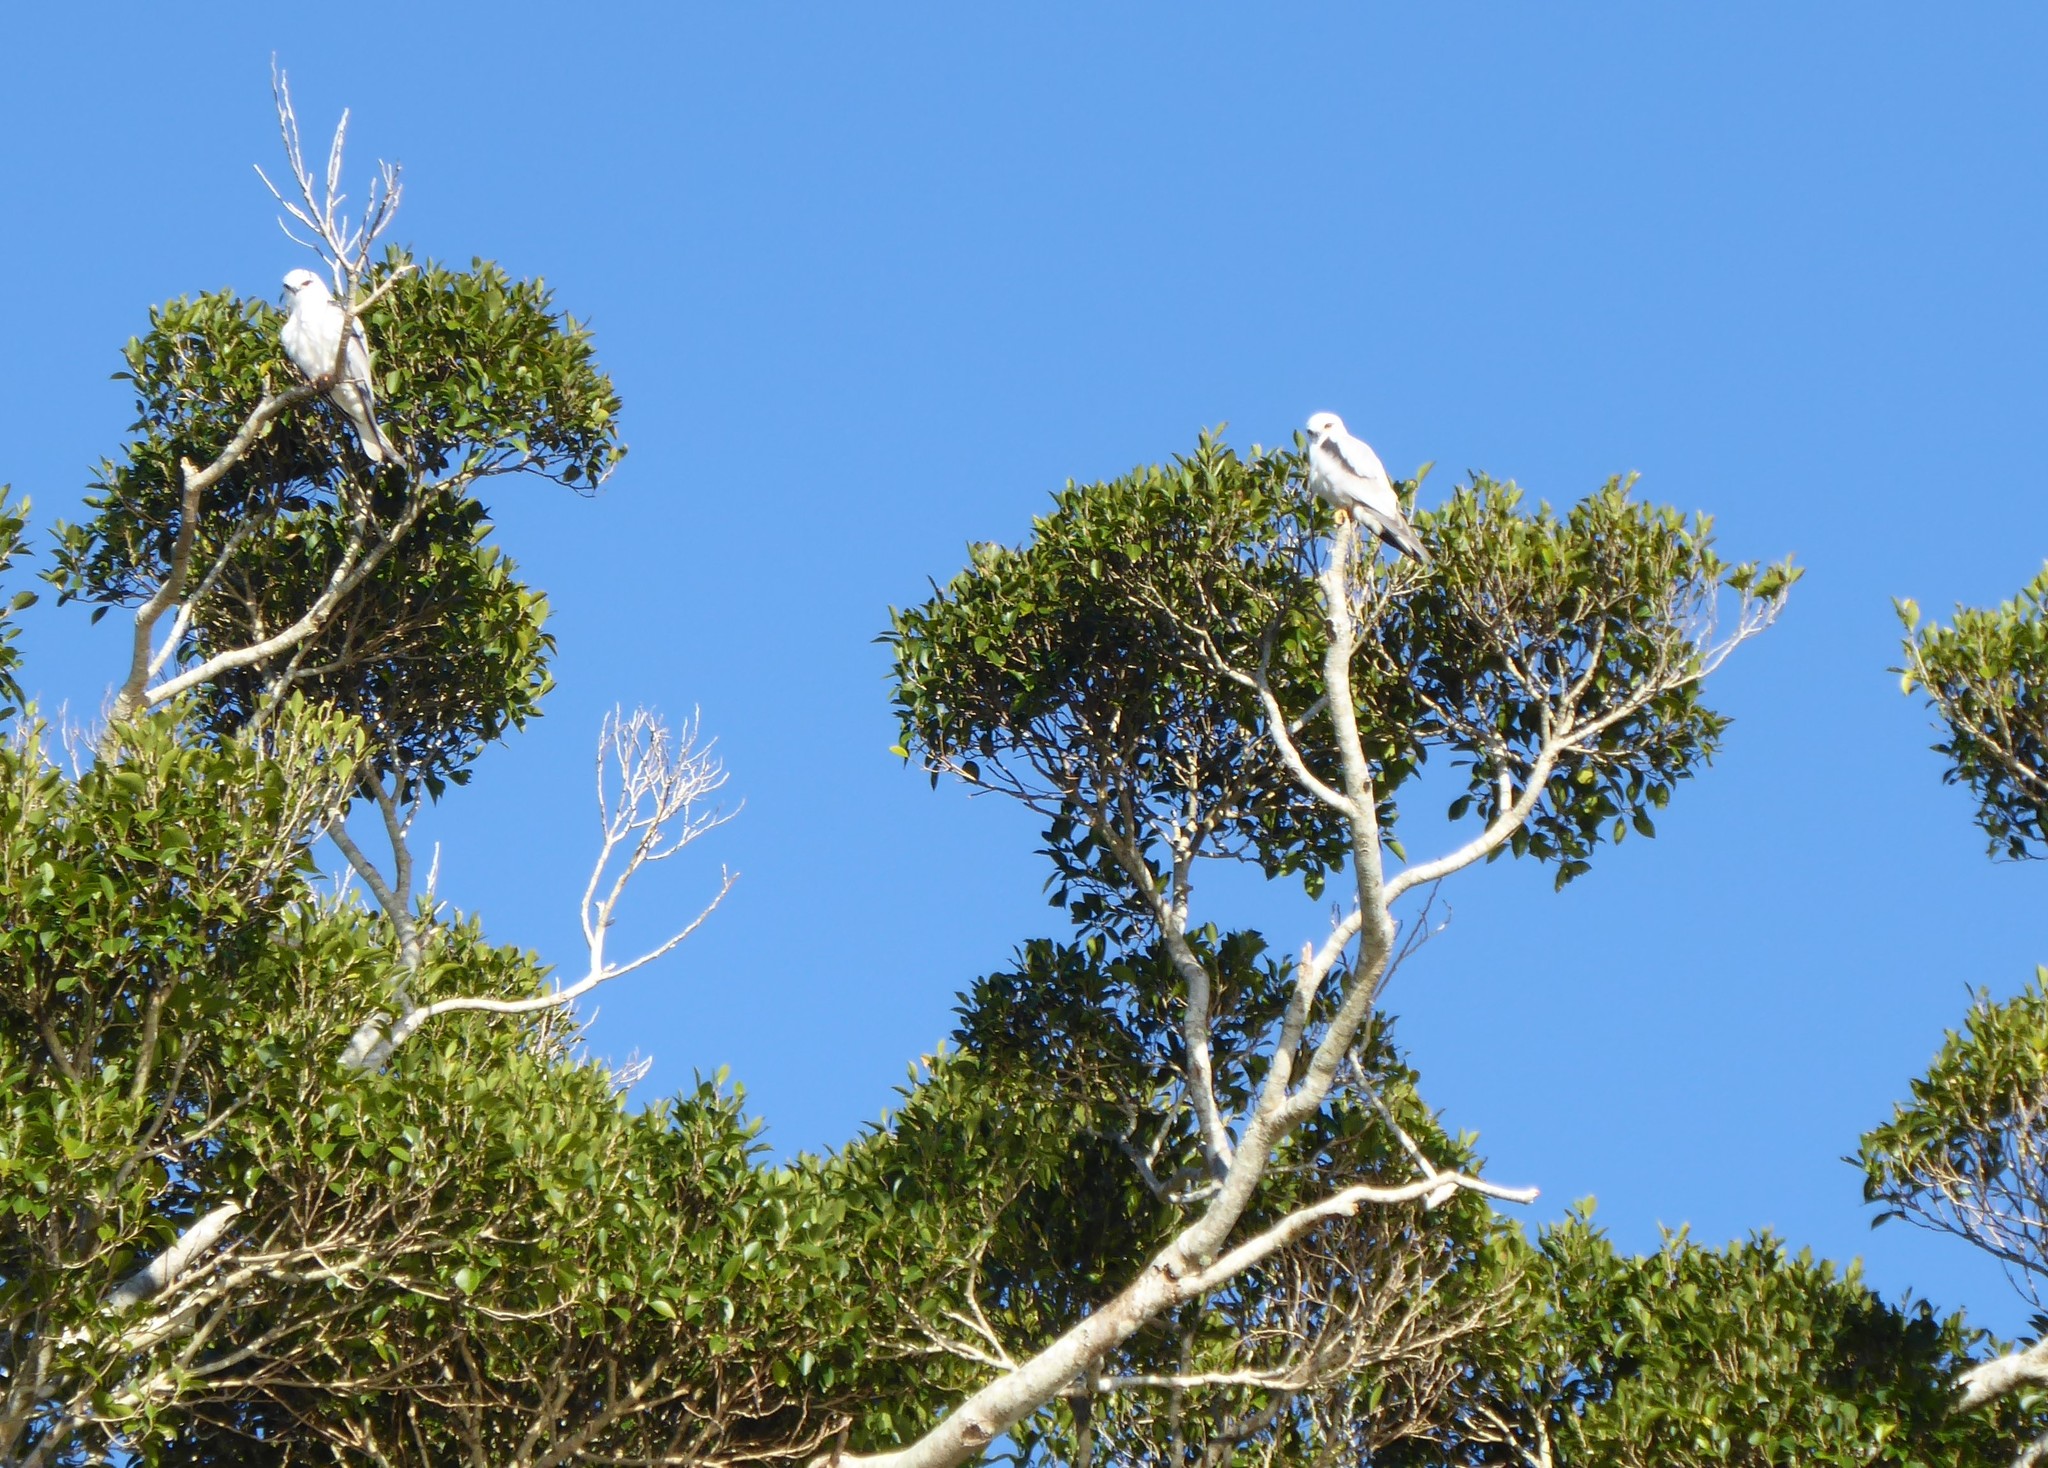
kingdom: Animalia
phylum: Chordata
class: Aves
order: Accipitriformes
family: Accipitridae
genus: Elanus
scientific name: Elanus axillaris
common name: Black-shouldered kite
